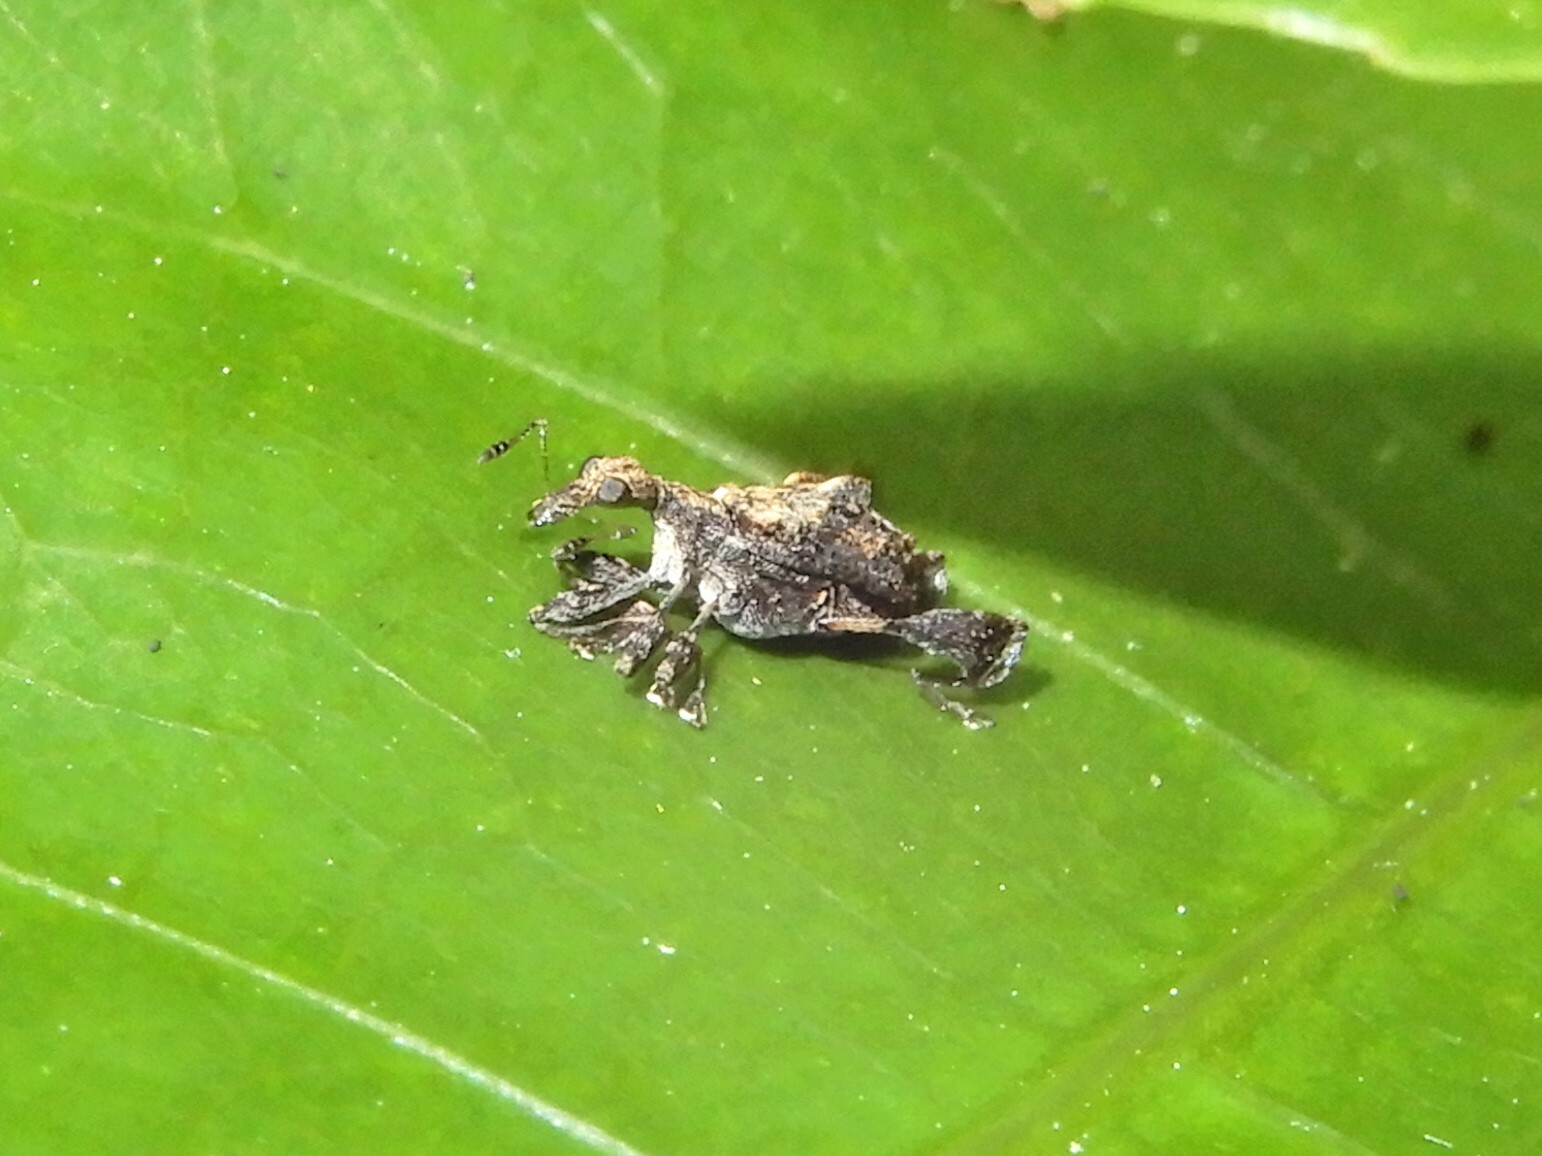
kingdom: Animalia
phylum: Arthropoda
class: Insecta
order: Coleoptera
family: Curculionidae
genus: Stephanorhynchus
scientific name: Stephanorhynchus lawsoni
